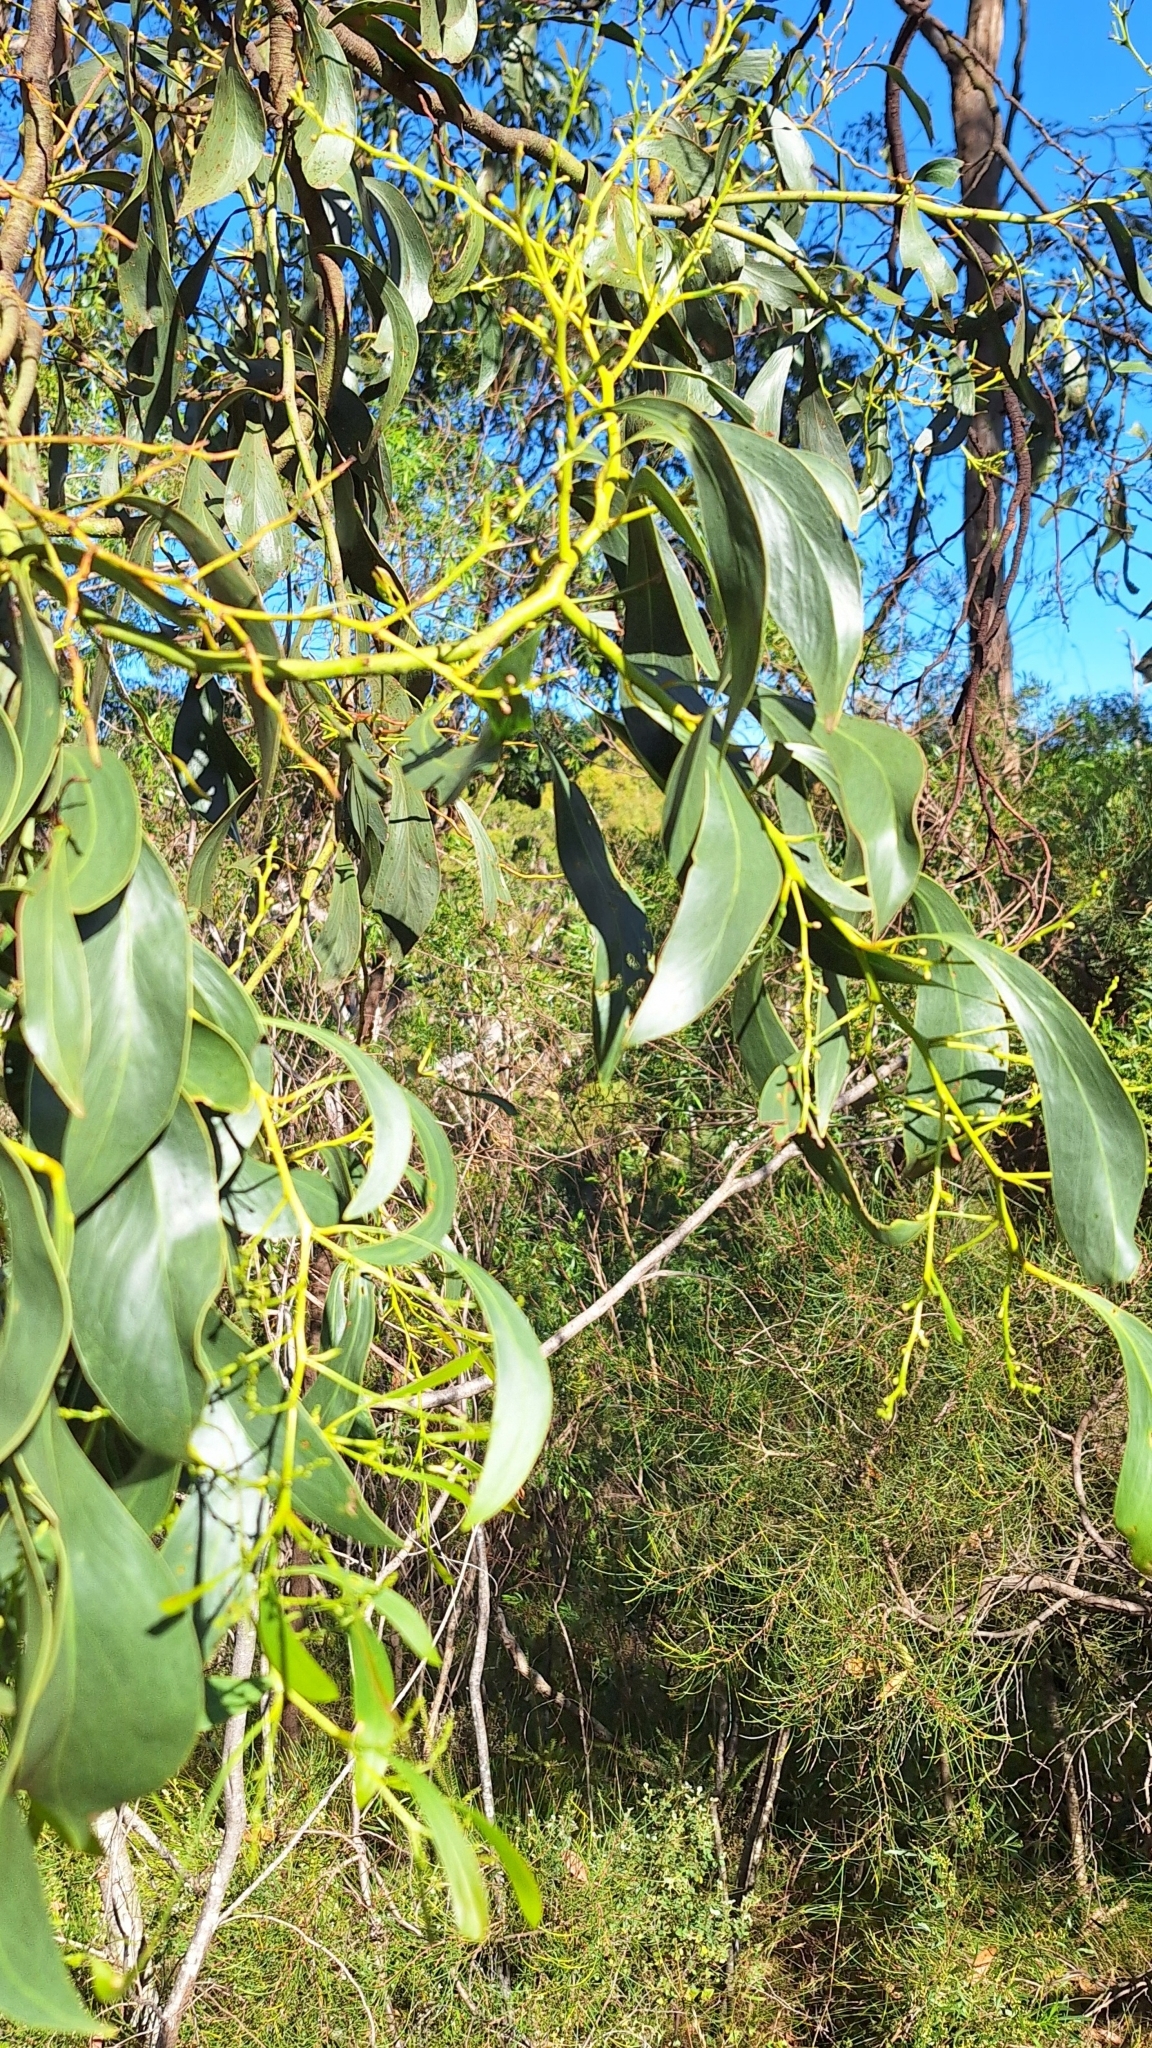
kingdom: Plantae
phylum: Tracheophyta
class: Magnoliopsida
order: Fabales
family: Fabaceae
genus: Acacia
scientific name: Acacia pycnantha
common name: Golden wattle
